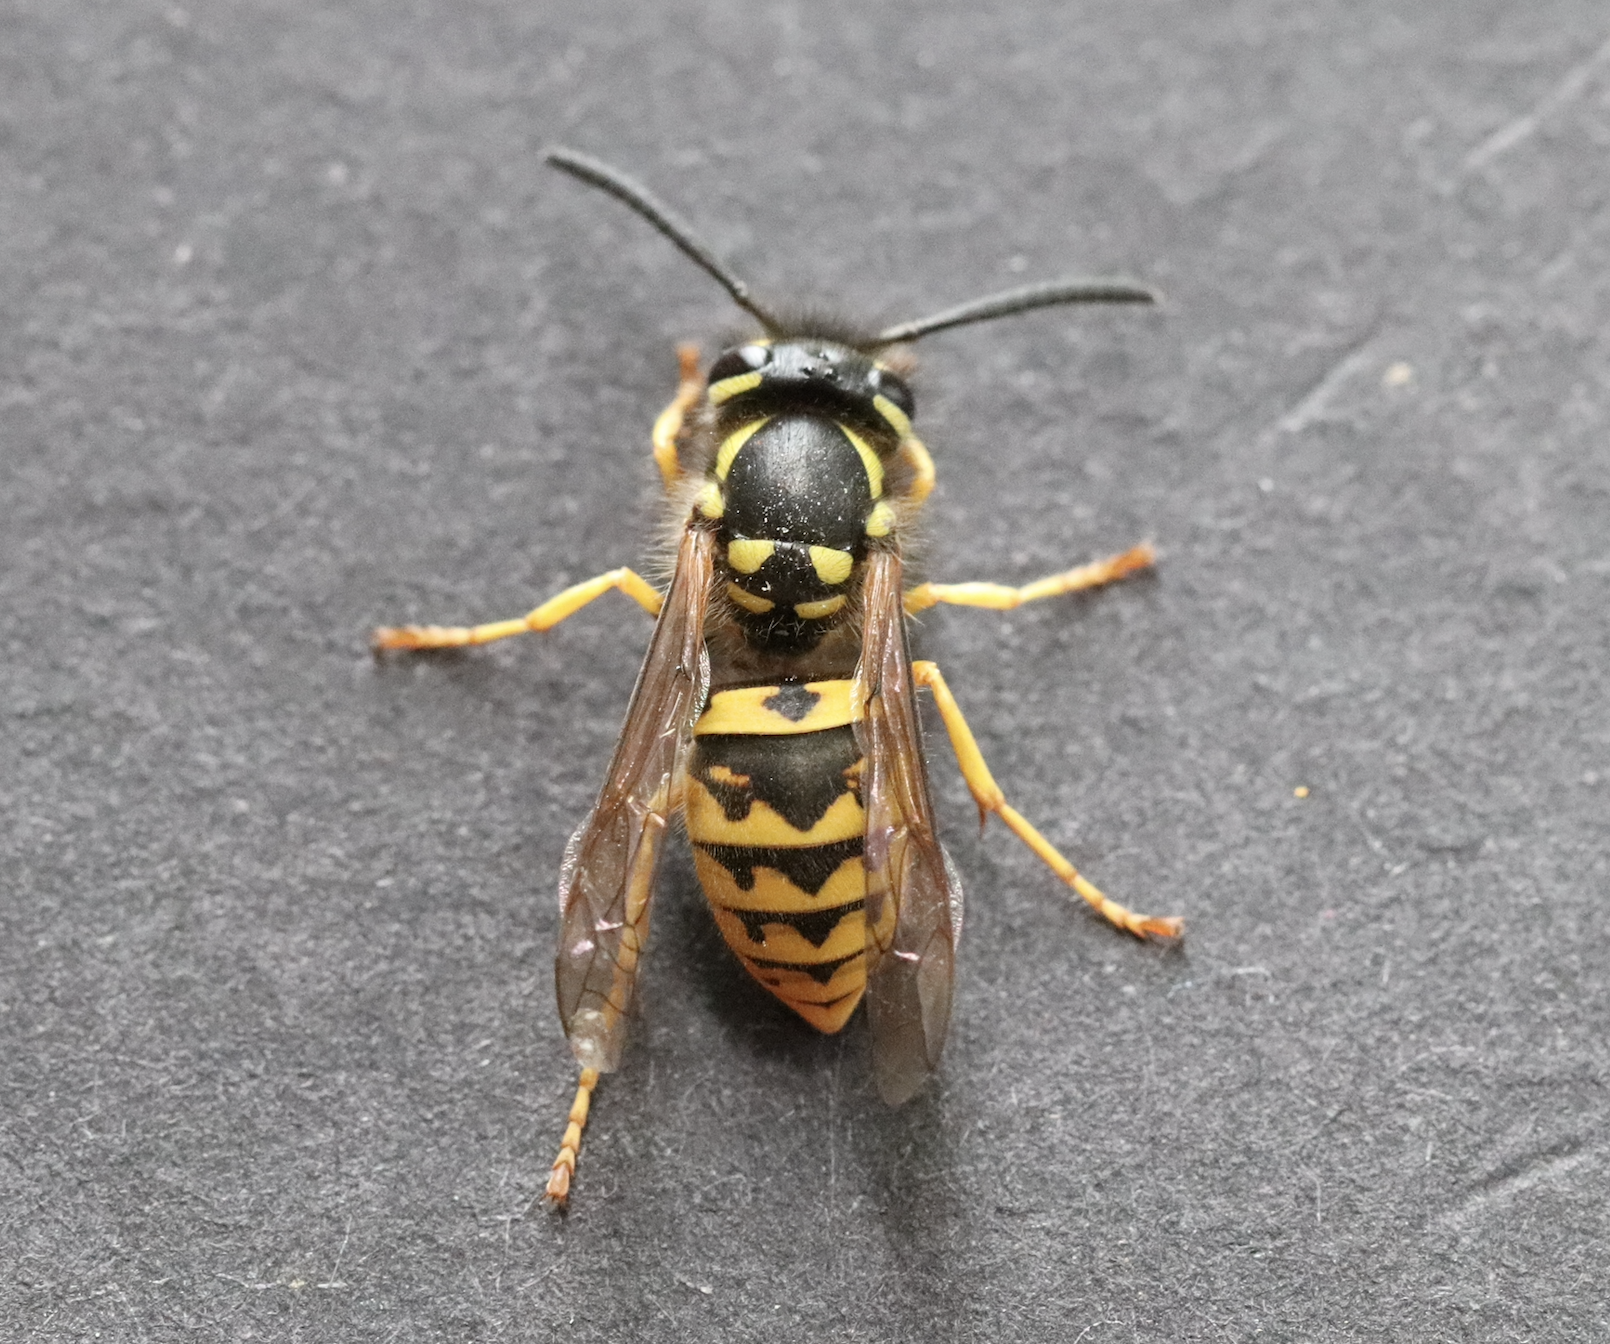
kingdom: Animalia
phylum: Arthropoda
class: Insecta
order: Hymenoptera
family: Vespidae
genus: Vespula
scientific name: Vespula germanica
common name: German wasp
